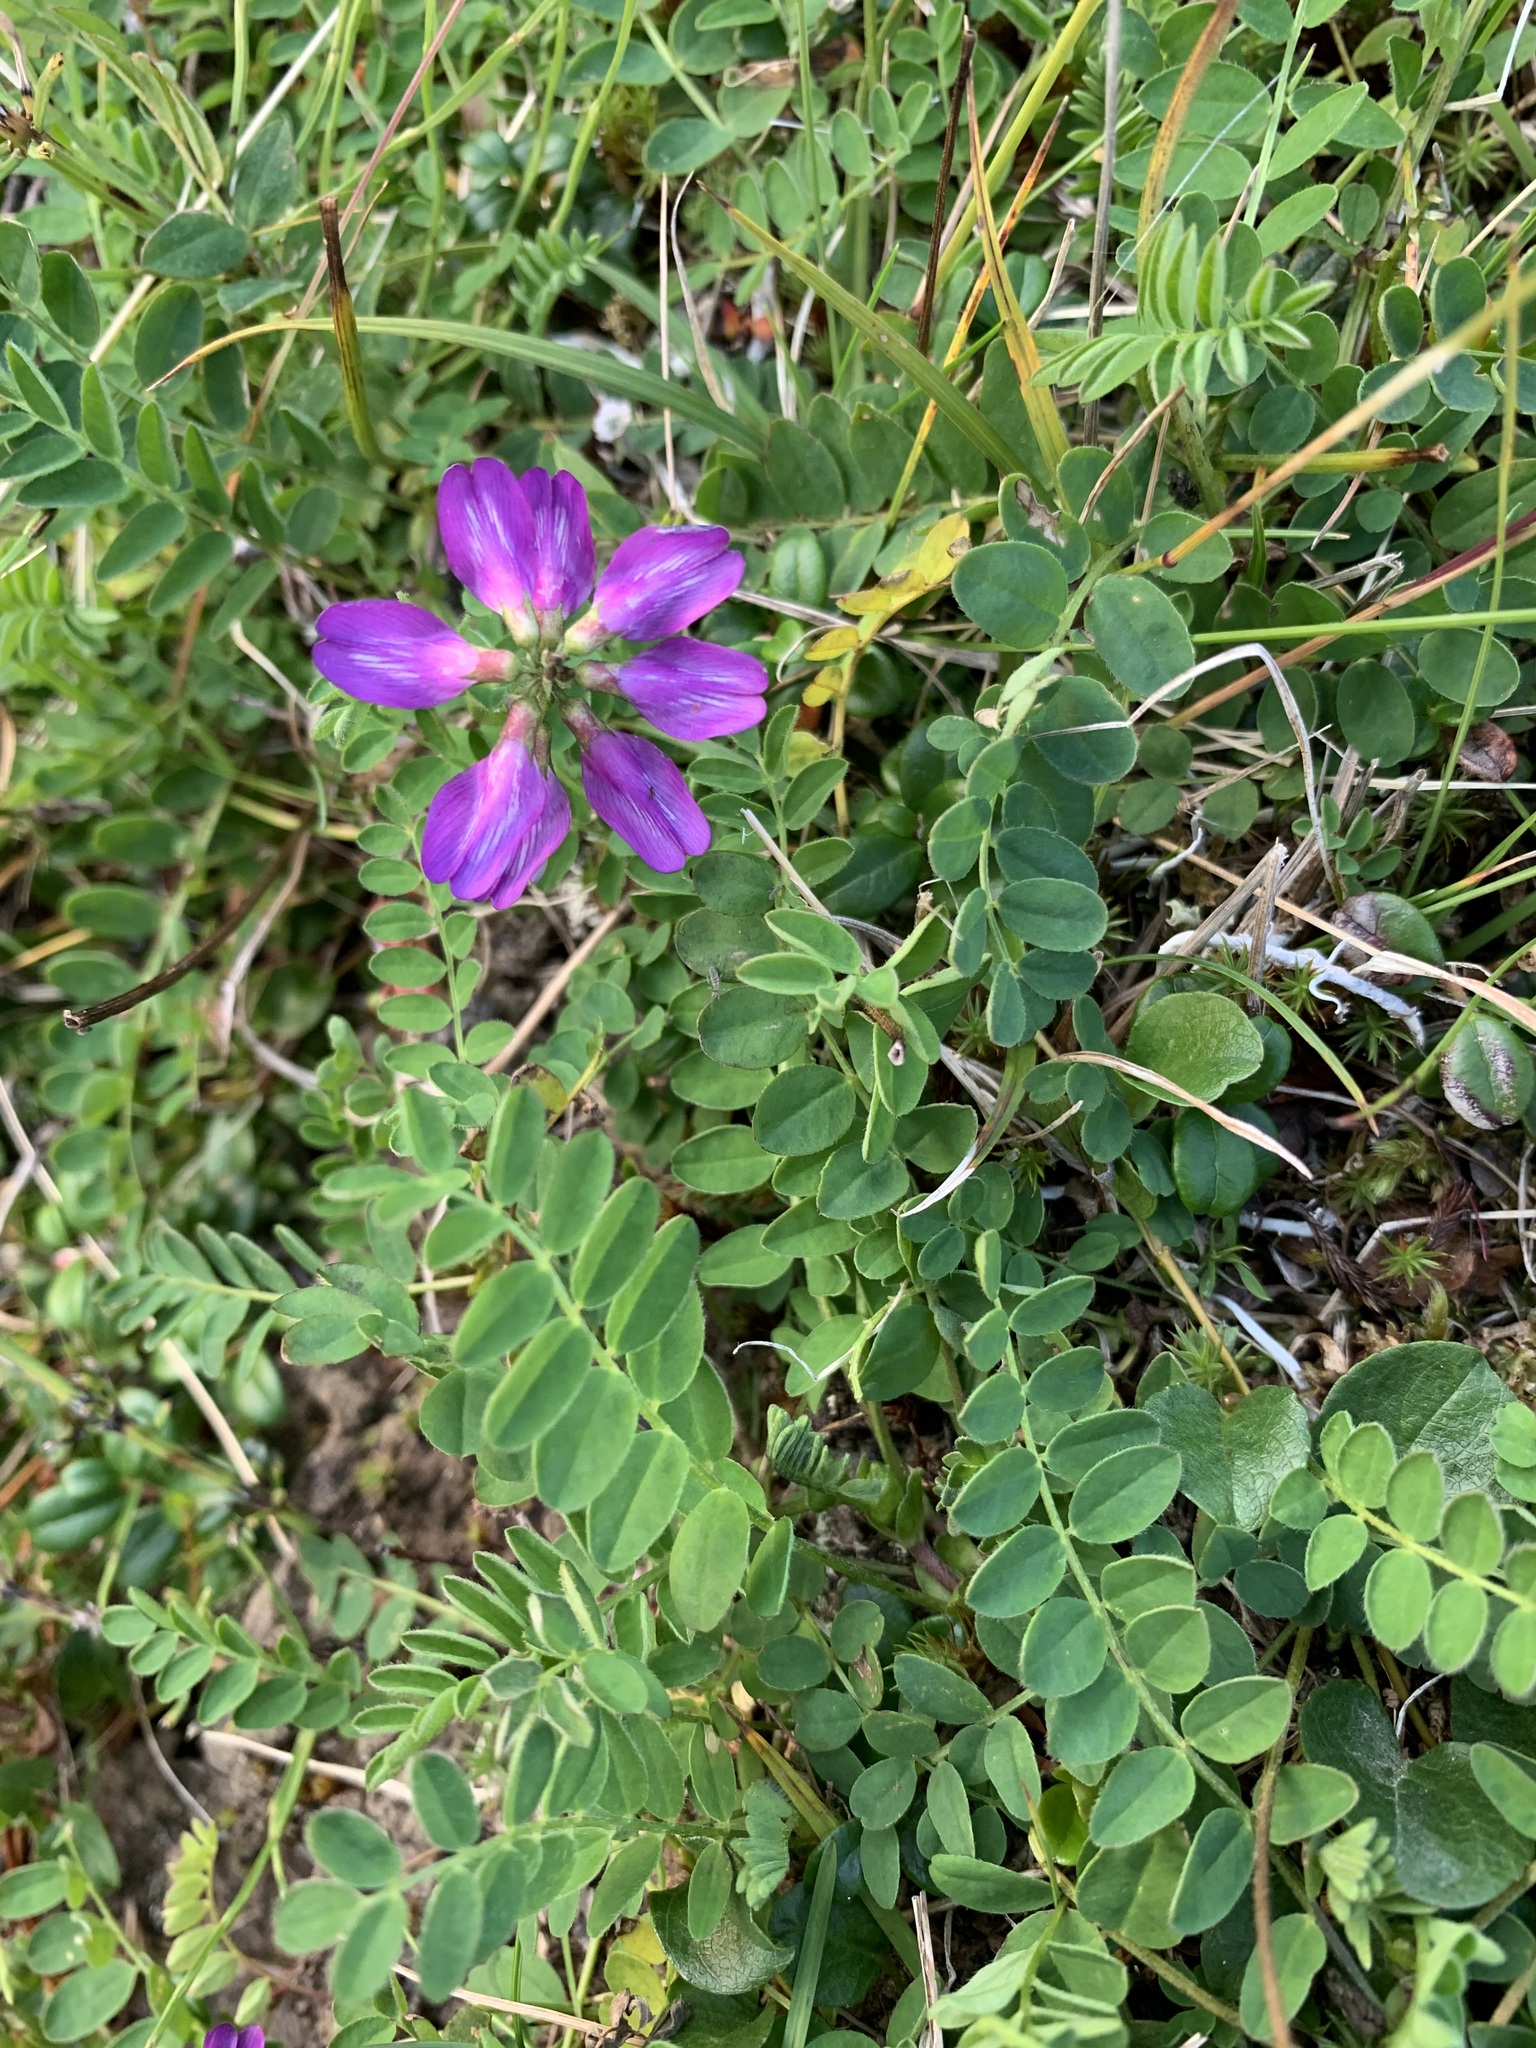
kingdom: Plantae
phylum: Tracheophyta
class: Magnoliopsida
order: Fabales
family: Fabaceae
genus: Astragalus
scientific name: Astragalus alpinus
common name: Alpine milk-vetch
